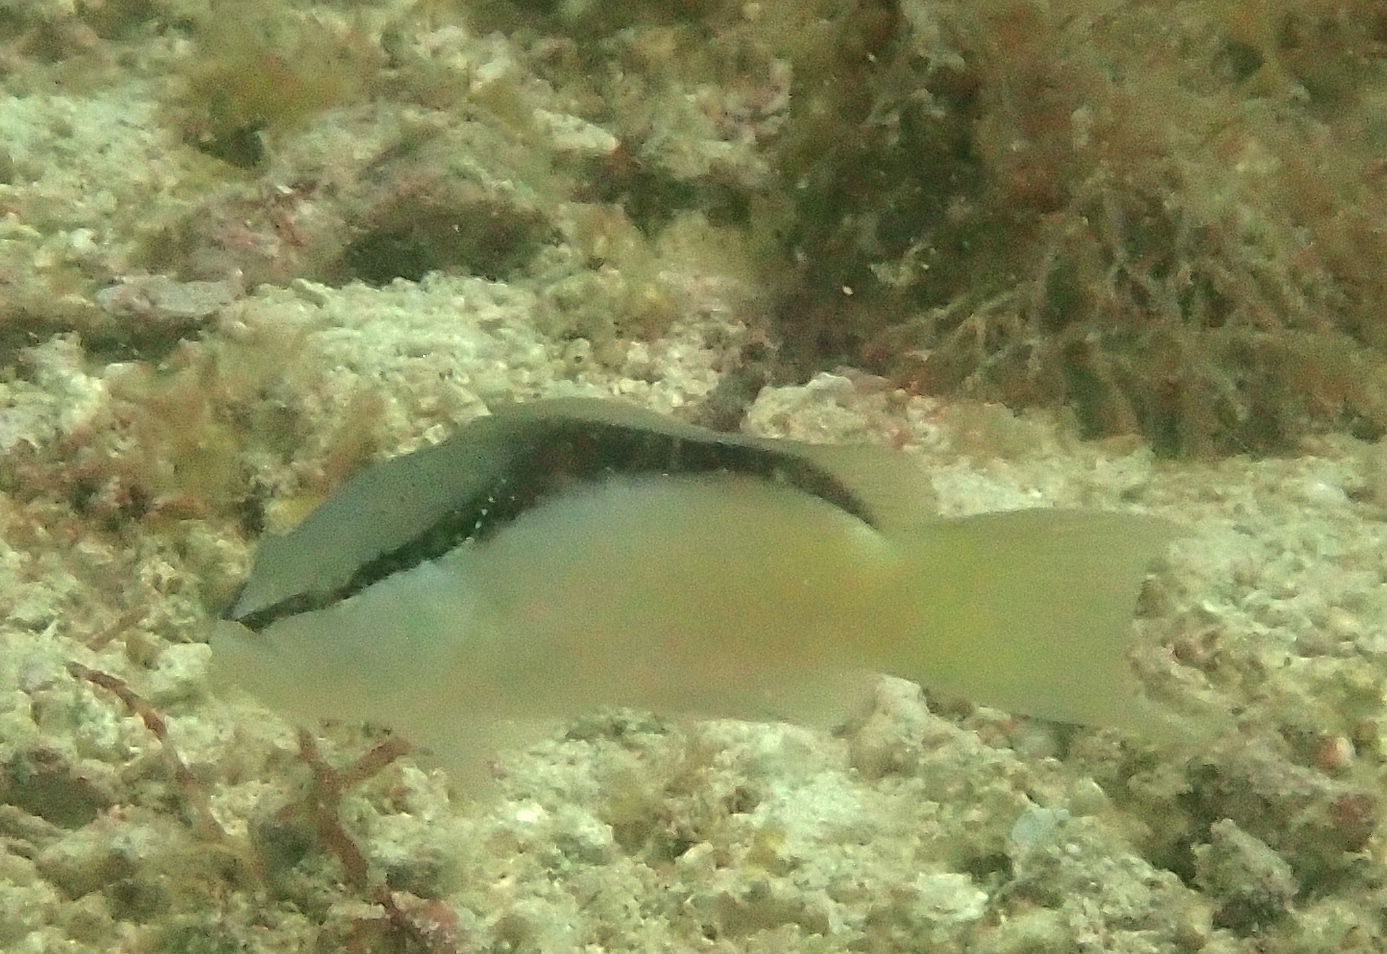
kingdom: Animalia
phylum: Chordata
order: Perciformes
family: Pseudochromidae
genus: Pseudochromis
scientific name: Pseudochromis perspicillatus
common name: Southeast asian blackstripe dottyback
